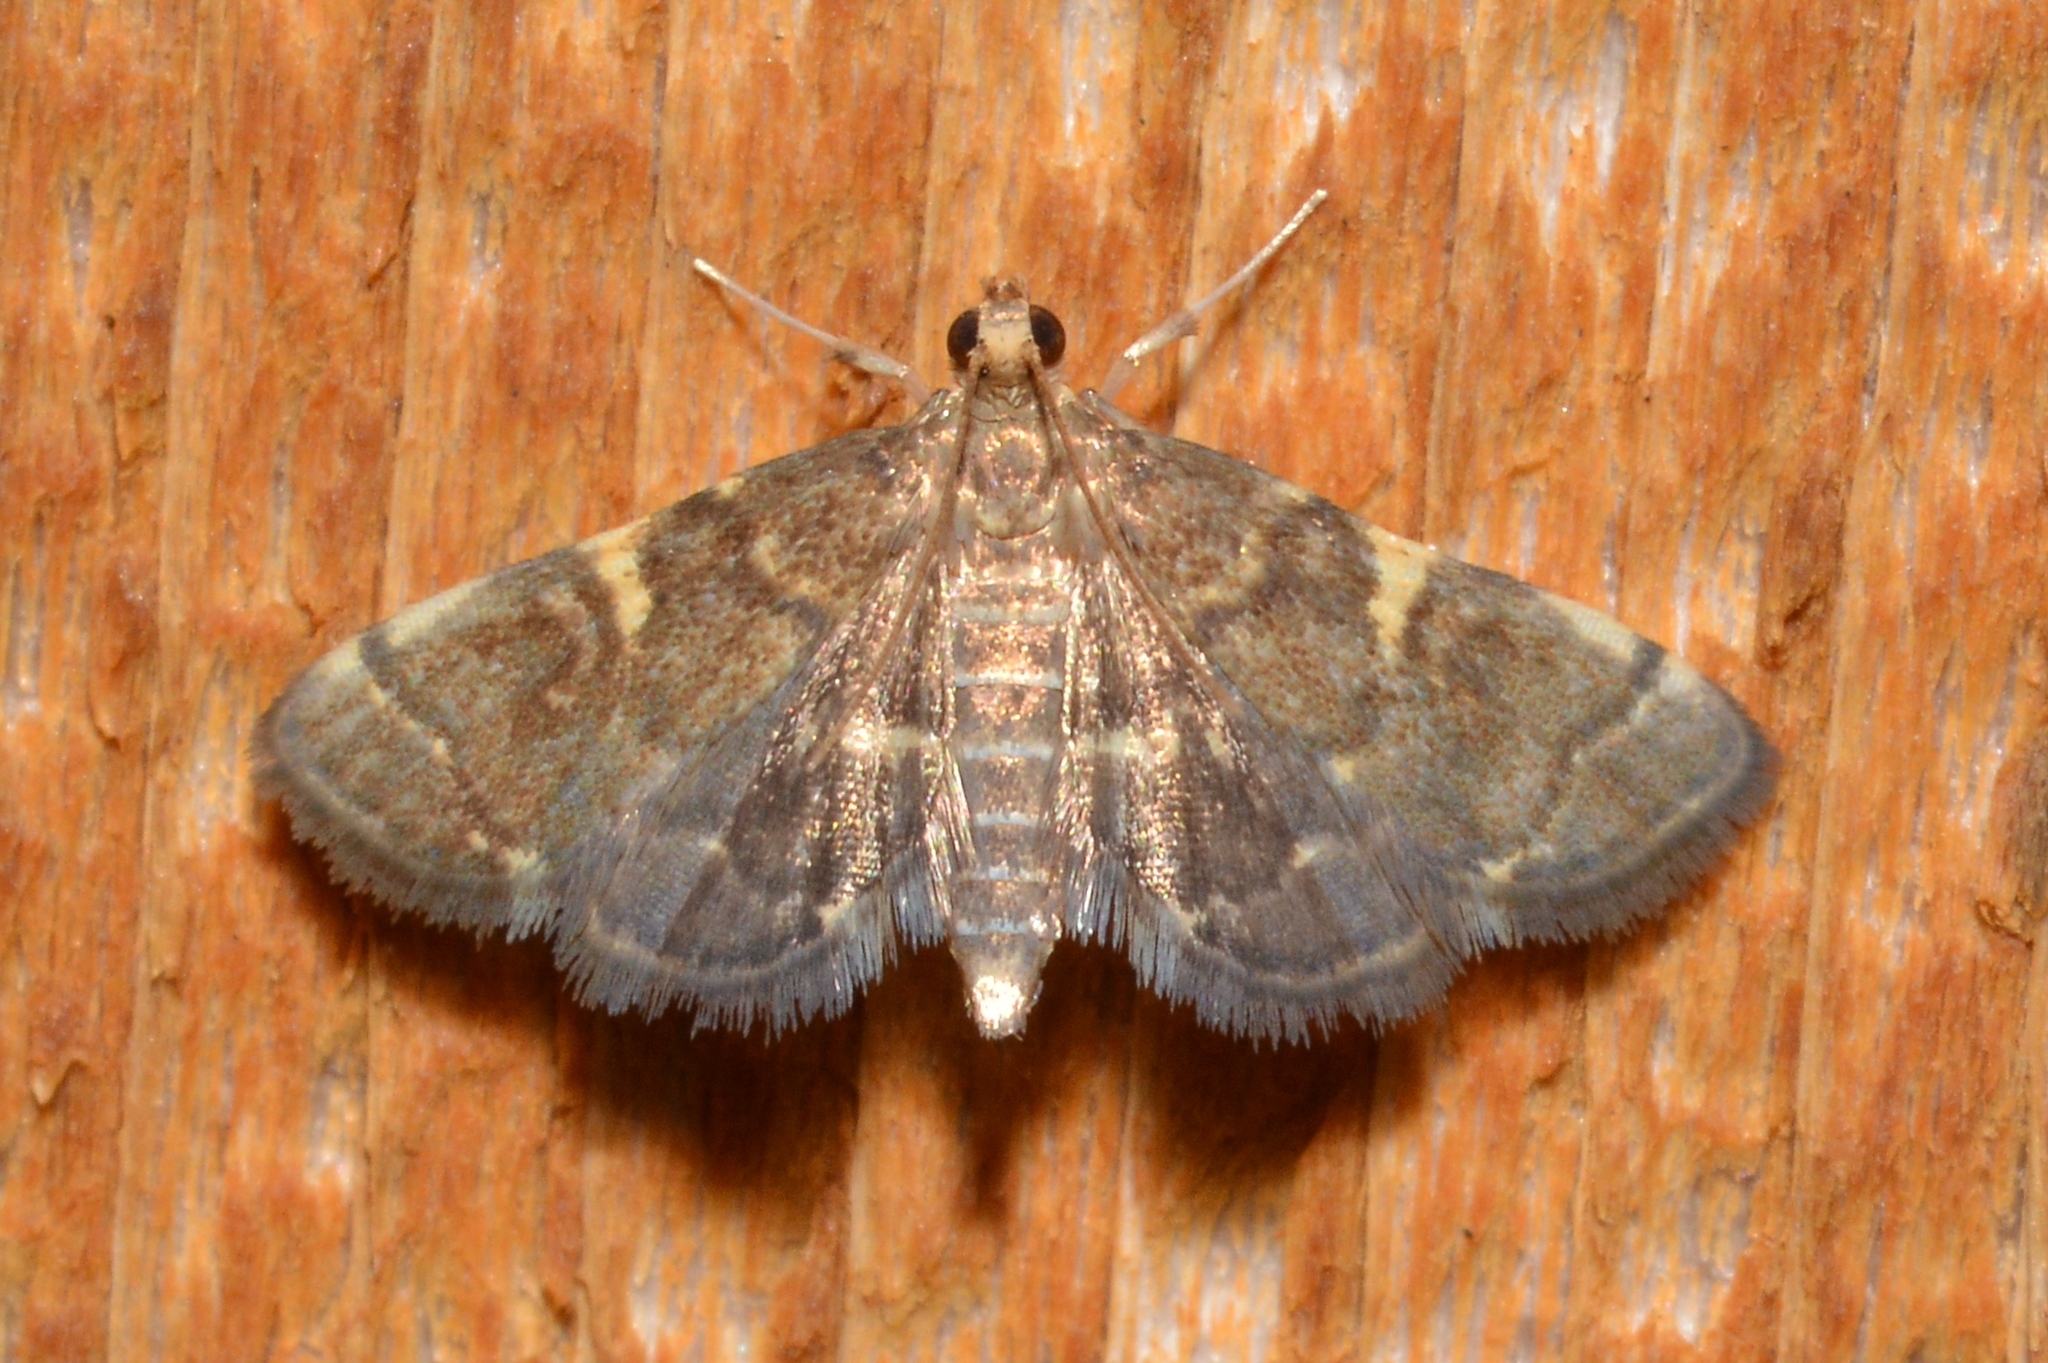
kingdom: Animalia
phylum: Arthropoda
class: Insecta
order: Lepidoptera
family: Crambidae
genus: Anageshna
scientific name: Anageshna primordialis
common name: Yellow-spotted webworm moth
